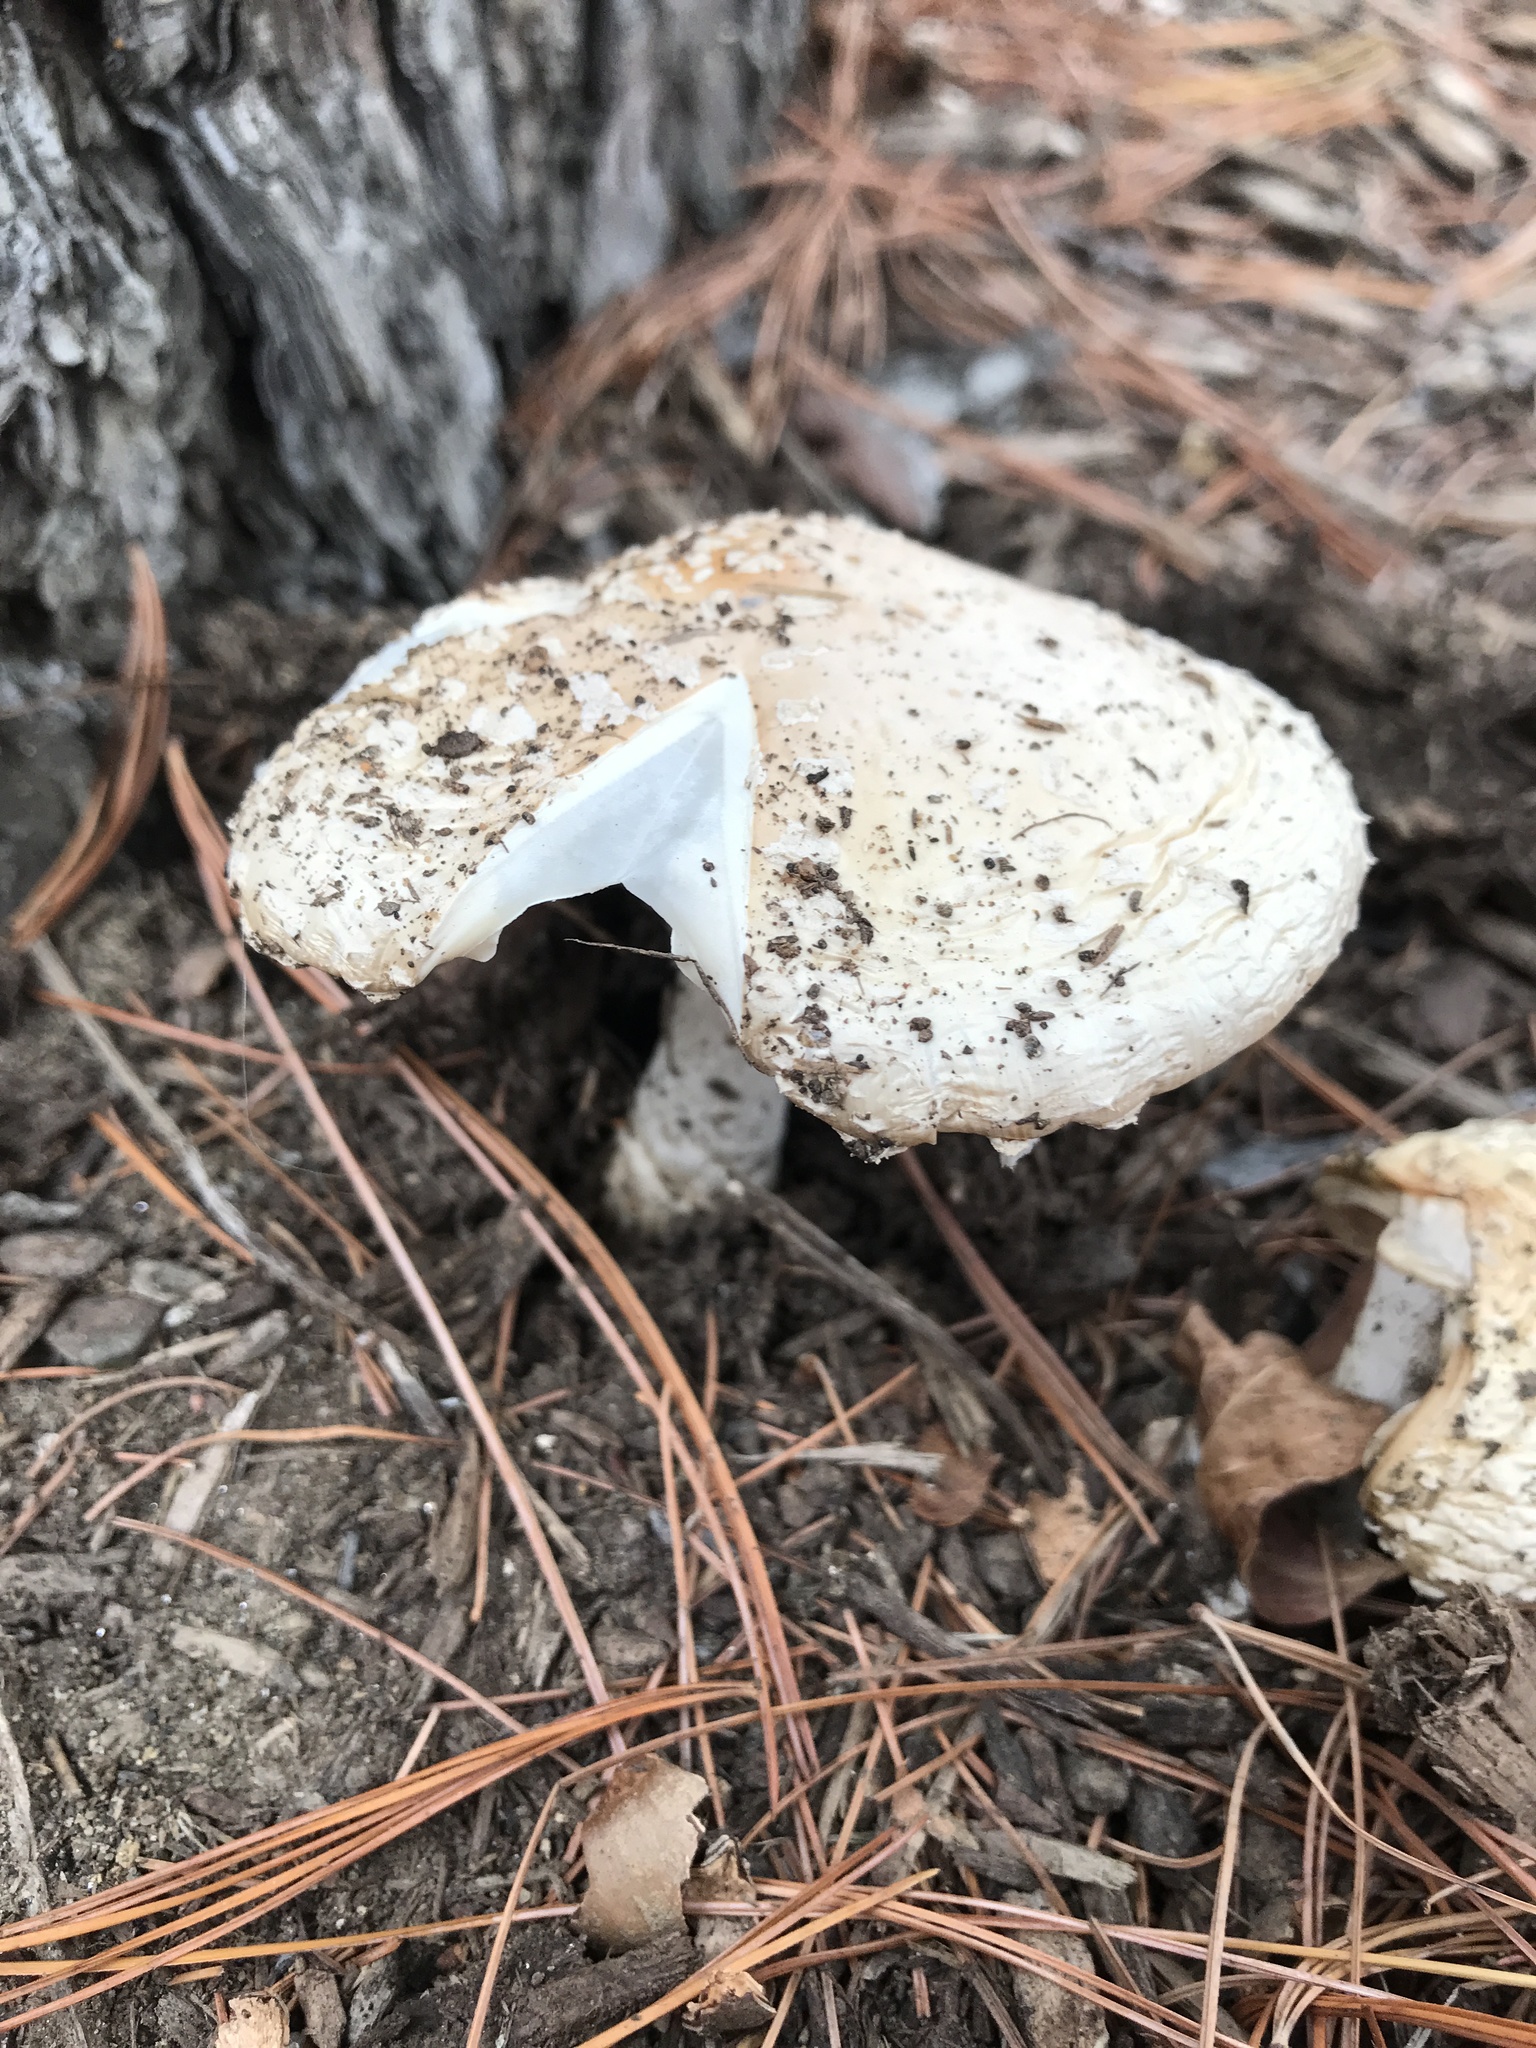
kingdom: Fungi
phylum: Basidiomycota
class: Agaricomycetes
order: Agaricales
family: Amanitaceae
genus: Amanita
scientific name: Amanita muscaria
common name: Fly agaric
